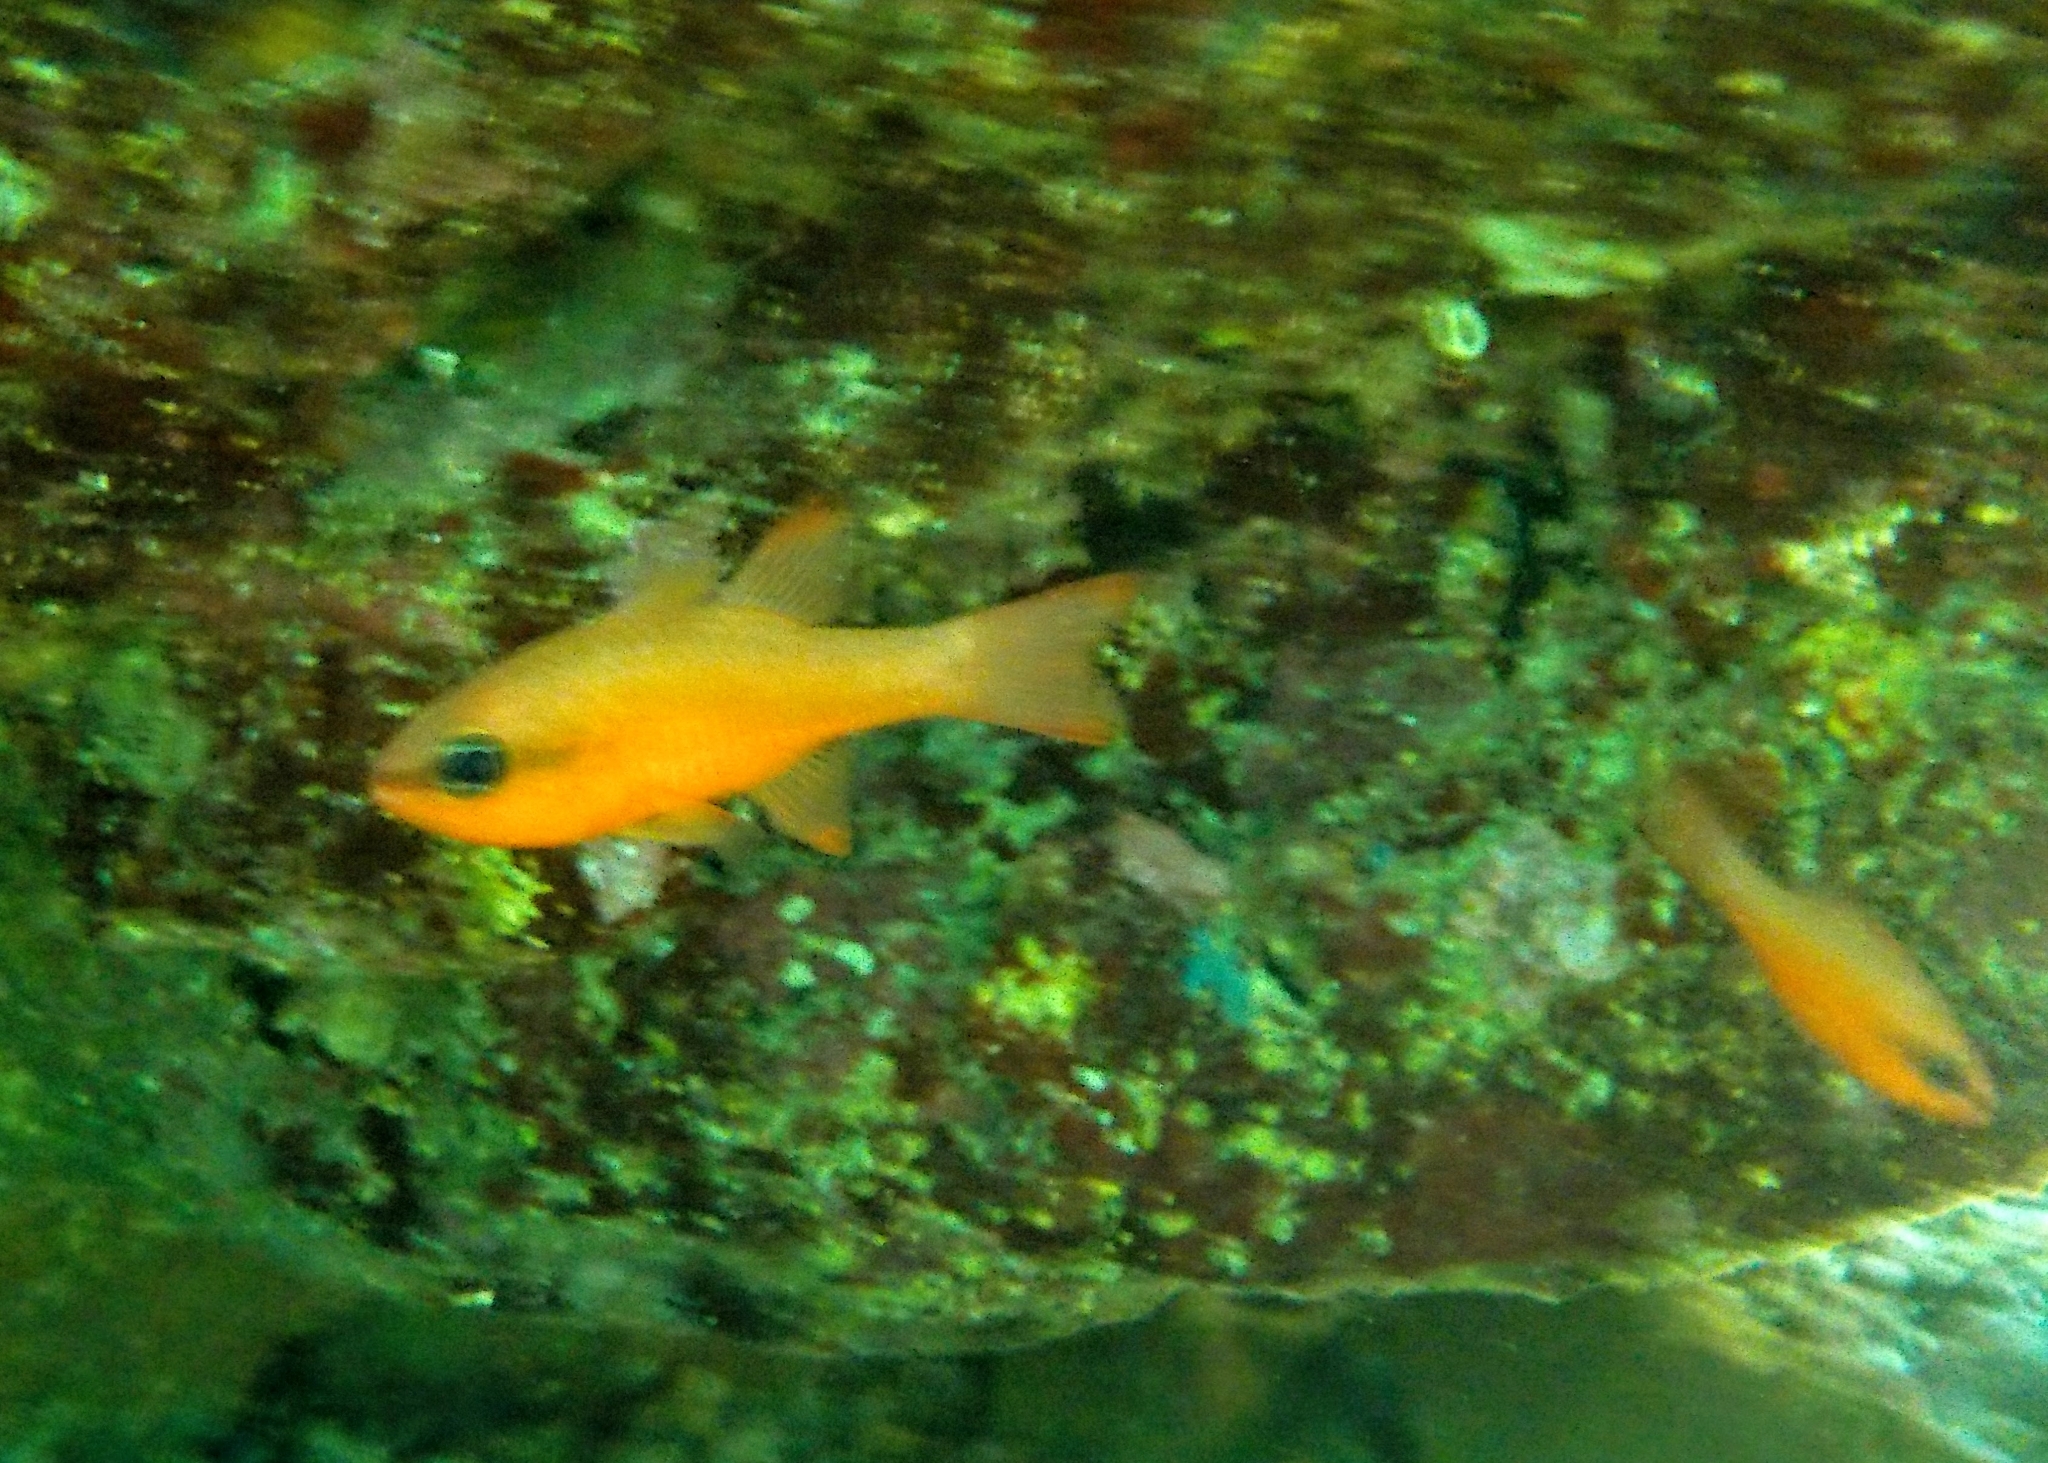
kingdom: Animalia
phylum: Chordata
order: Perciformes
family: Apogonidae
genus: Apogon
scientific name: Apogon imberbis
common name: Cardinal fish
